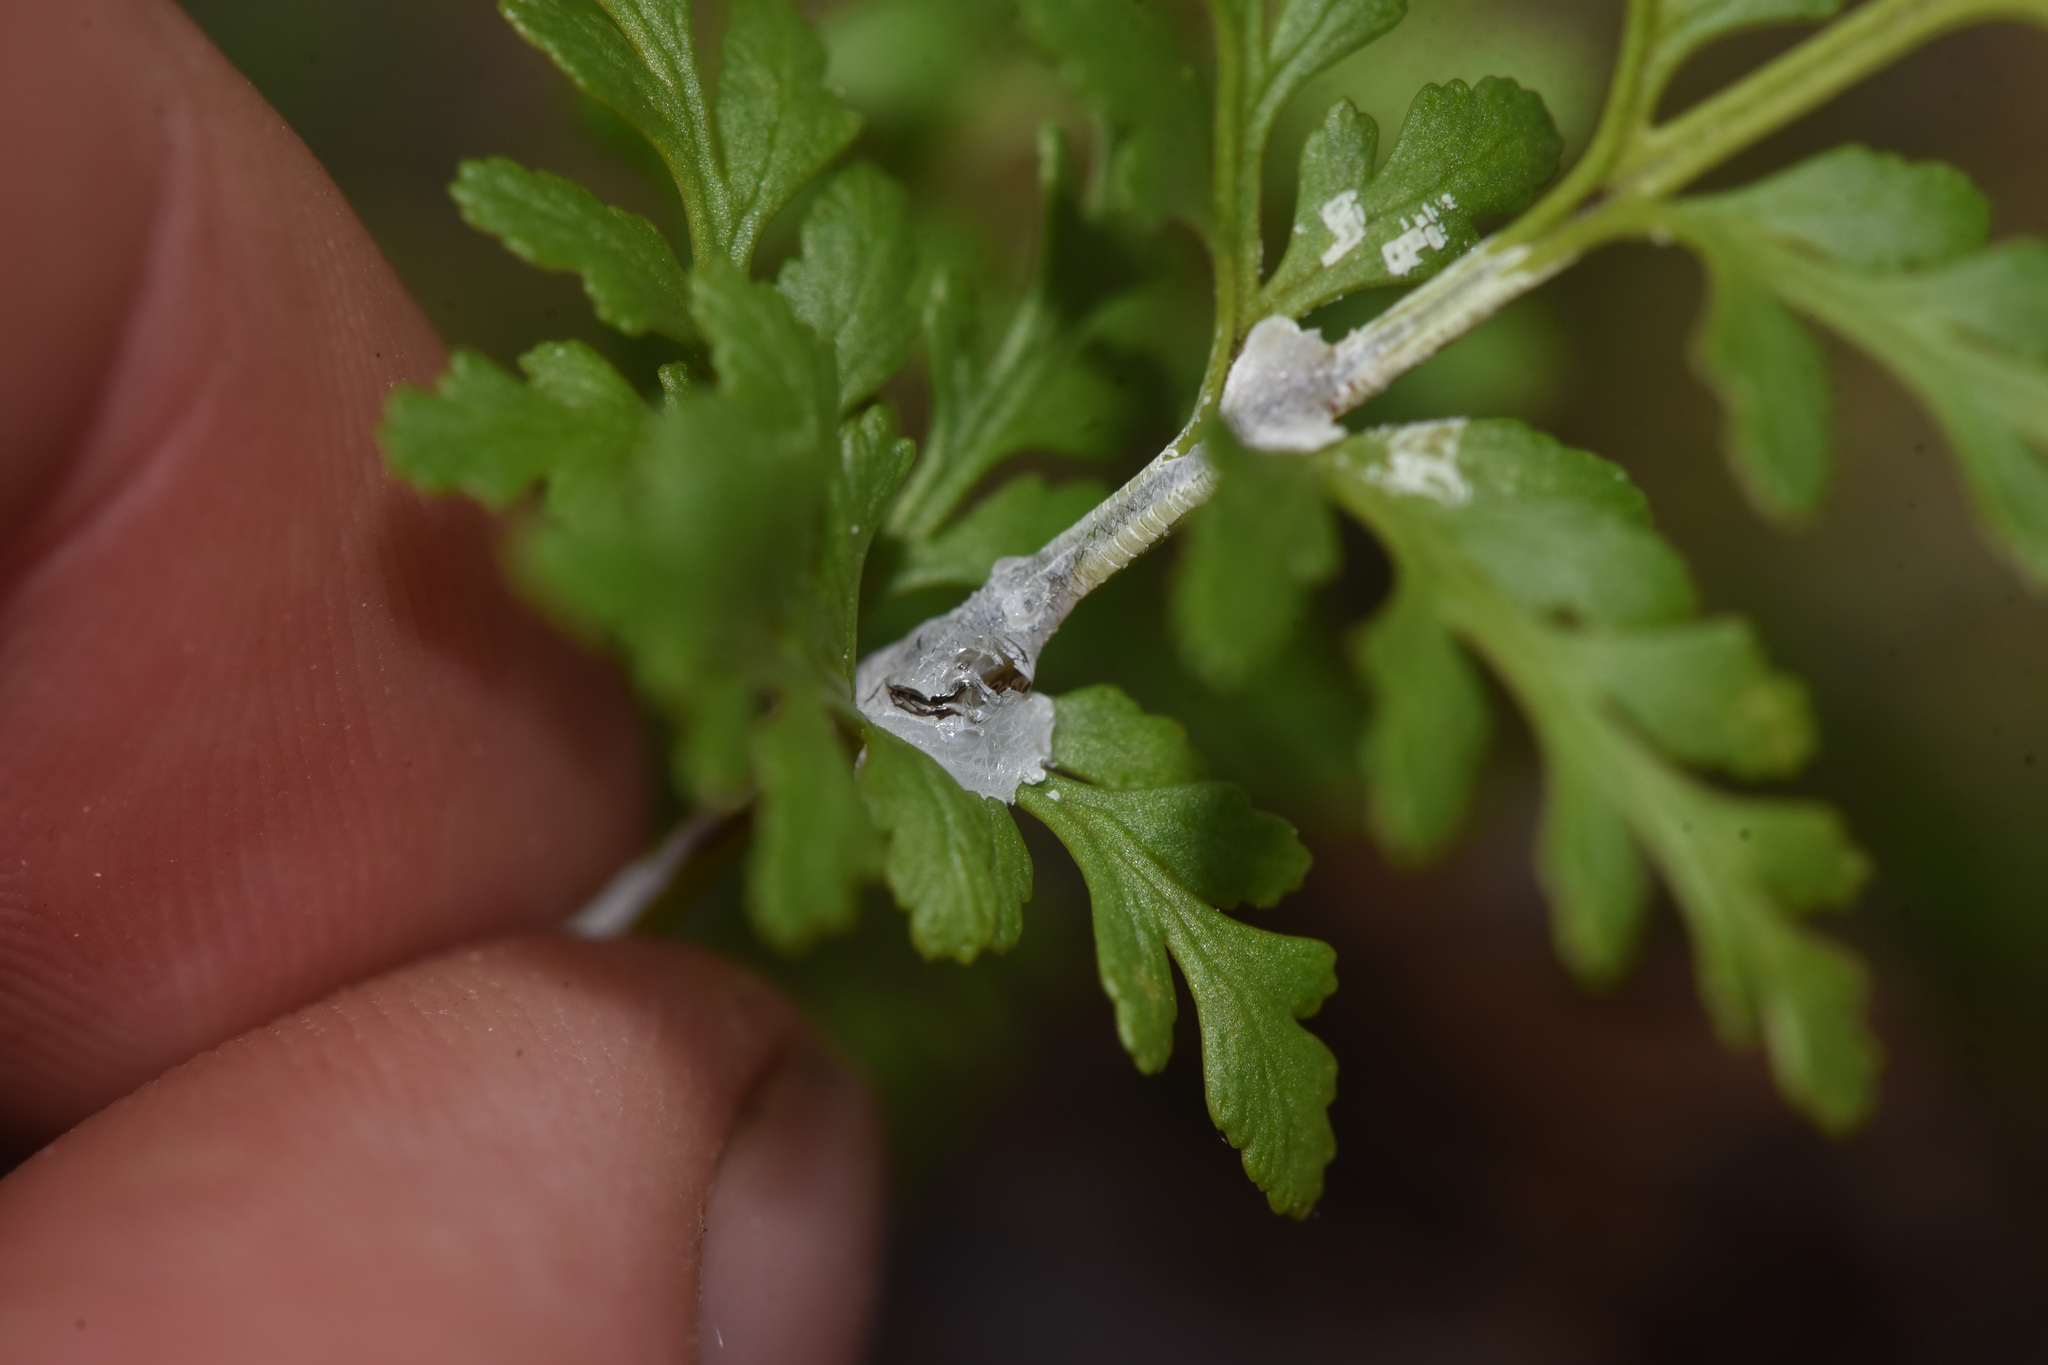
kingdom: Plantae
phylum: Tracheophyta
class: Polypodiopsida
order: Polypodiales
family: Pteridaceae
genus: Cryptogramma
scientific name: Cryptogramma acrostichoides
